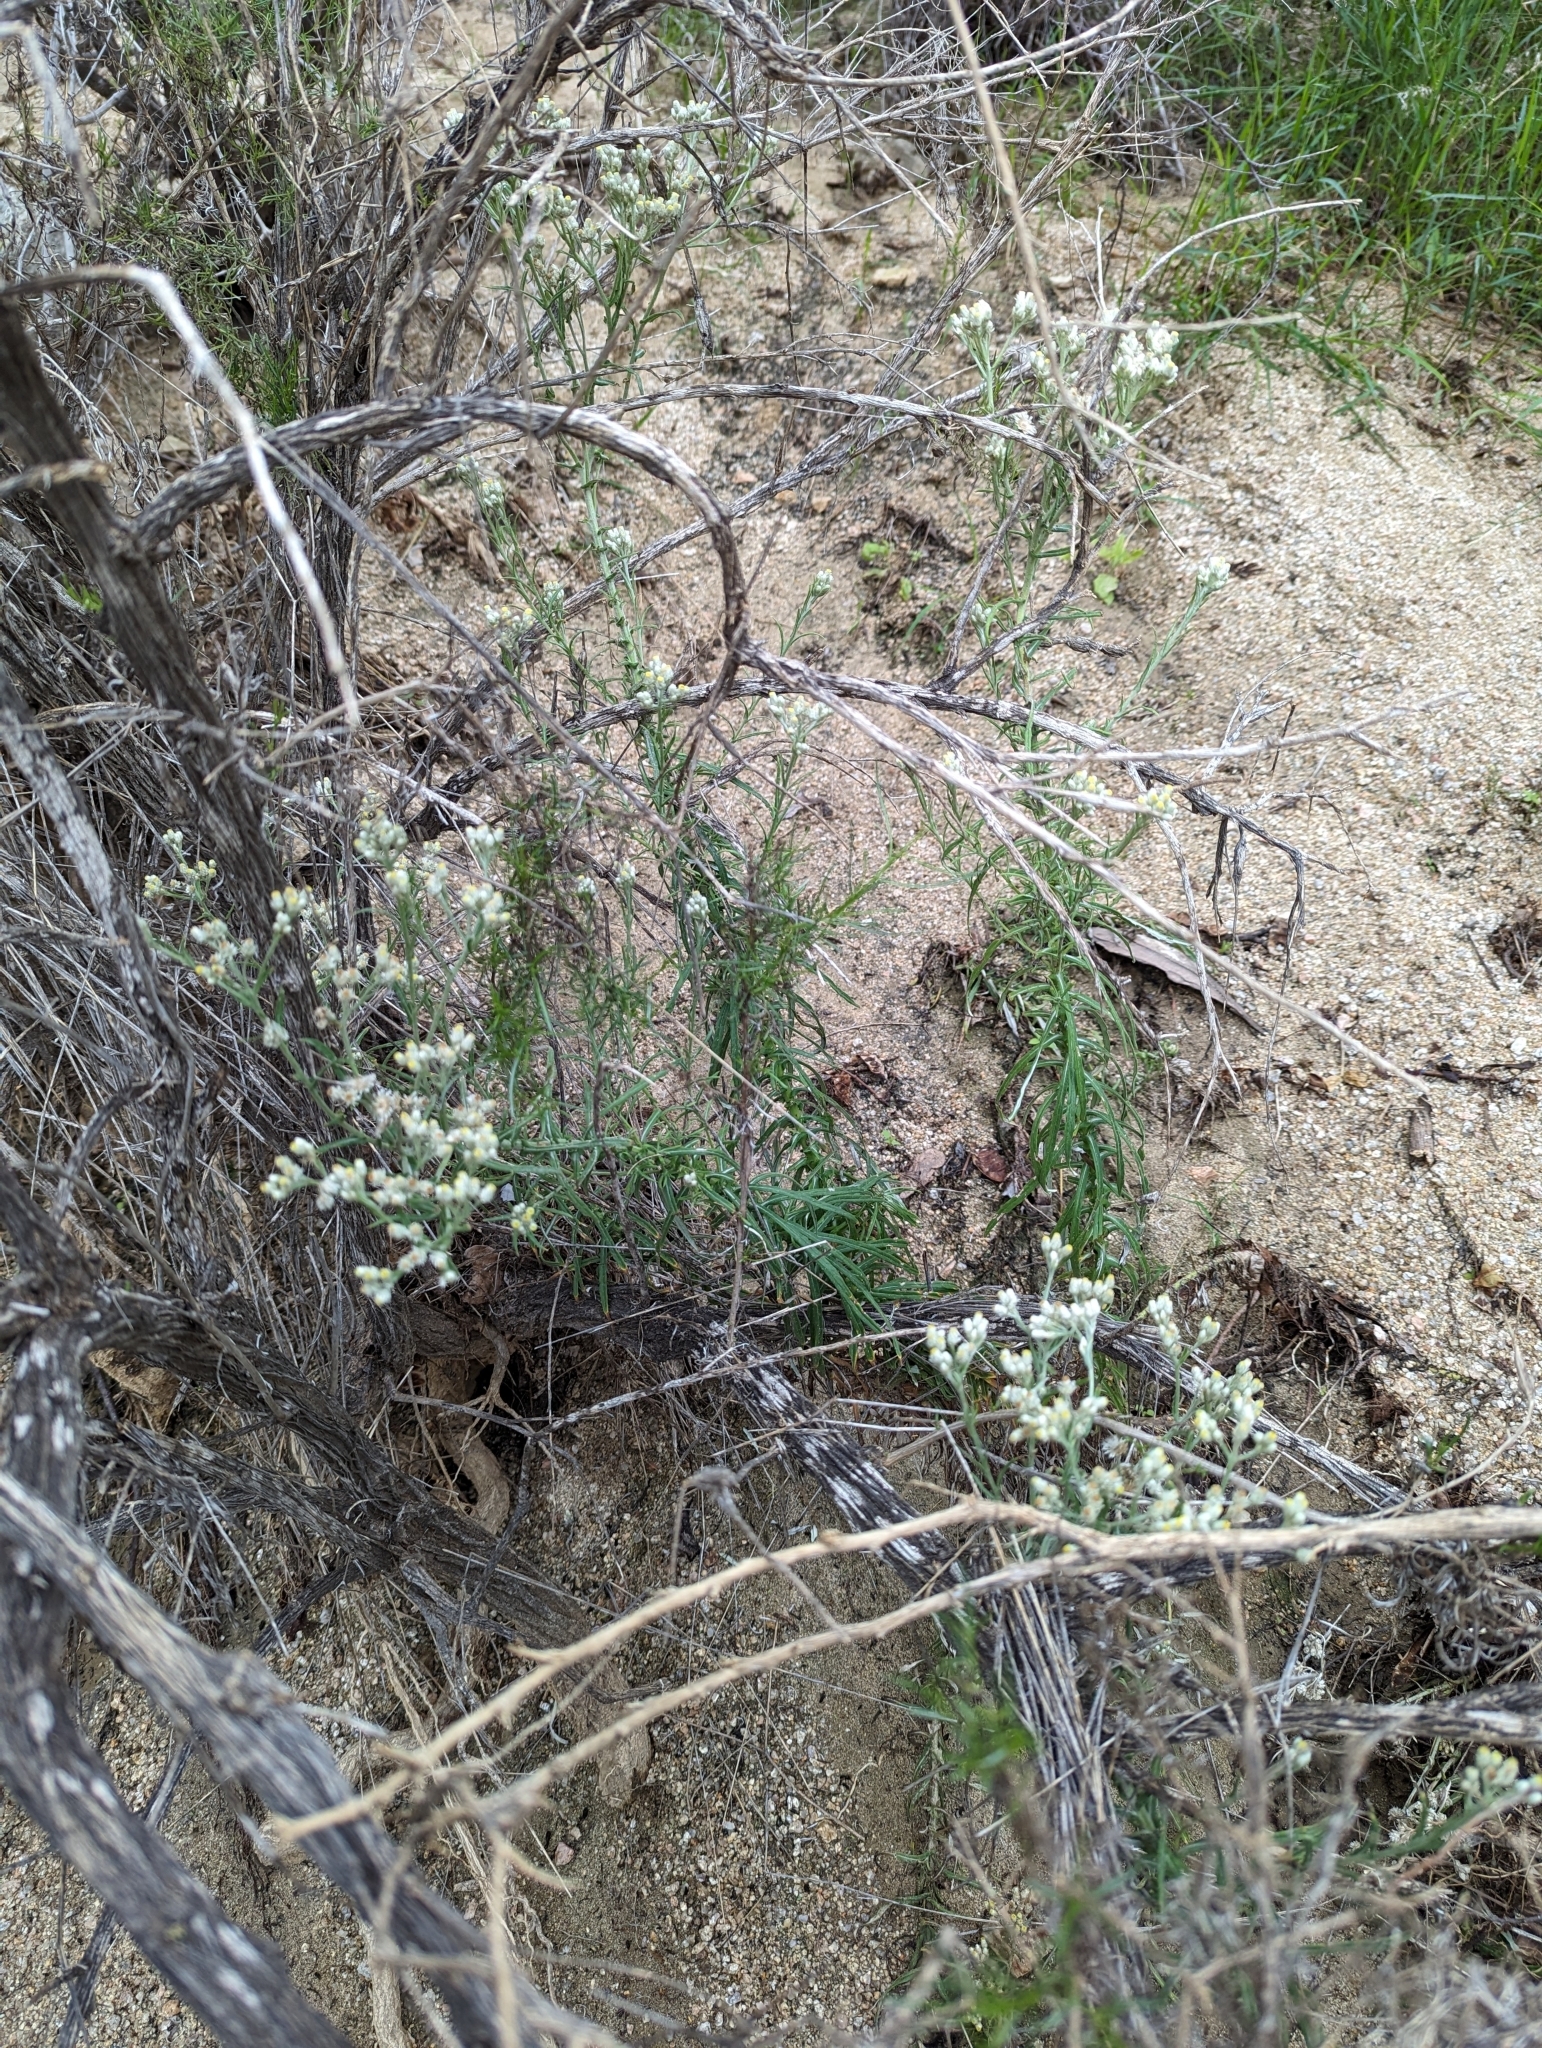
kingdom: Plantae
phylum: Tracheophyta
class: Magnoliopsida
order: Asterales
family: Asteraceae
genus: Pseudognaphalium
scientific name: Pseudognaphalium leucocephalum
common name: White cudweed
